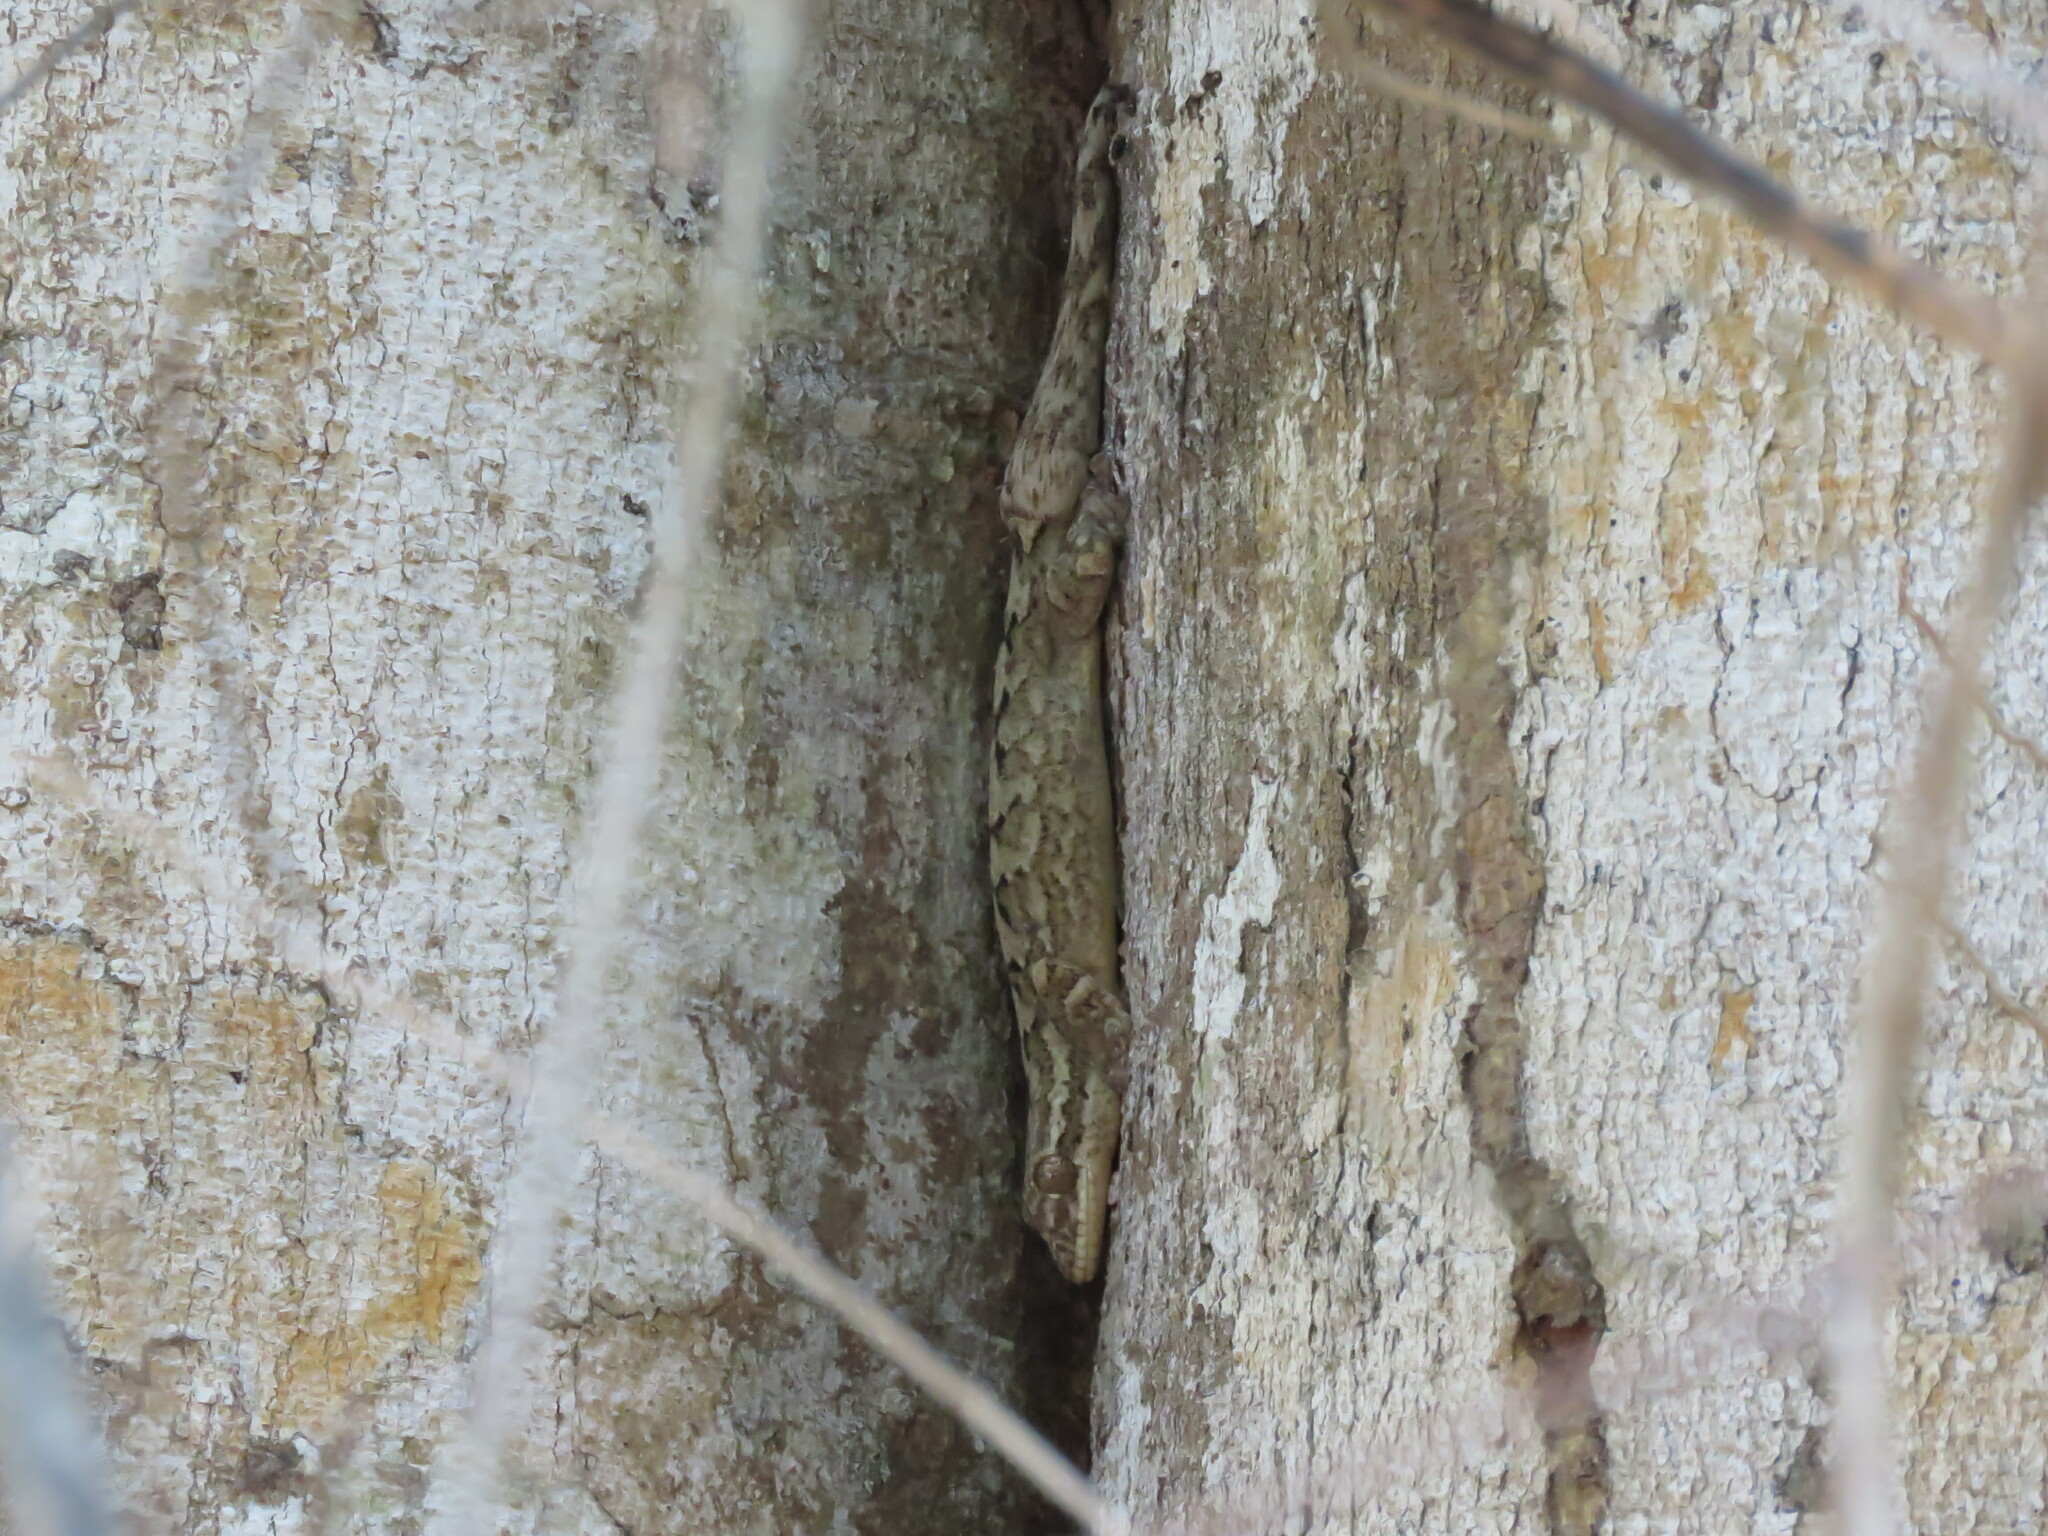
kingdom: Animalia
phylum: Chordata
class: Squamata
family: Phyllodactylidae
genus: Thecadactylus
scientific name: Thecadactylus rapicauda
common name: Turnip-tailed gecko
